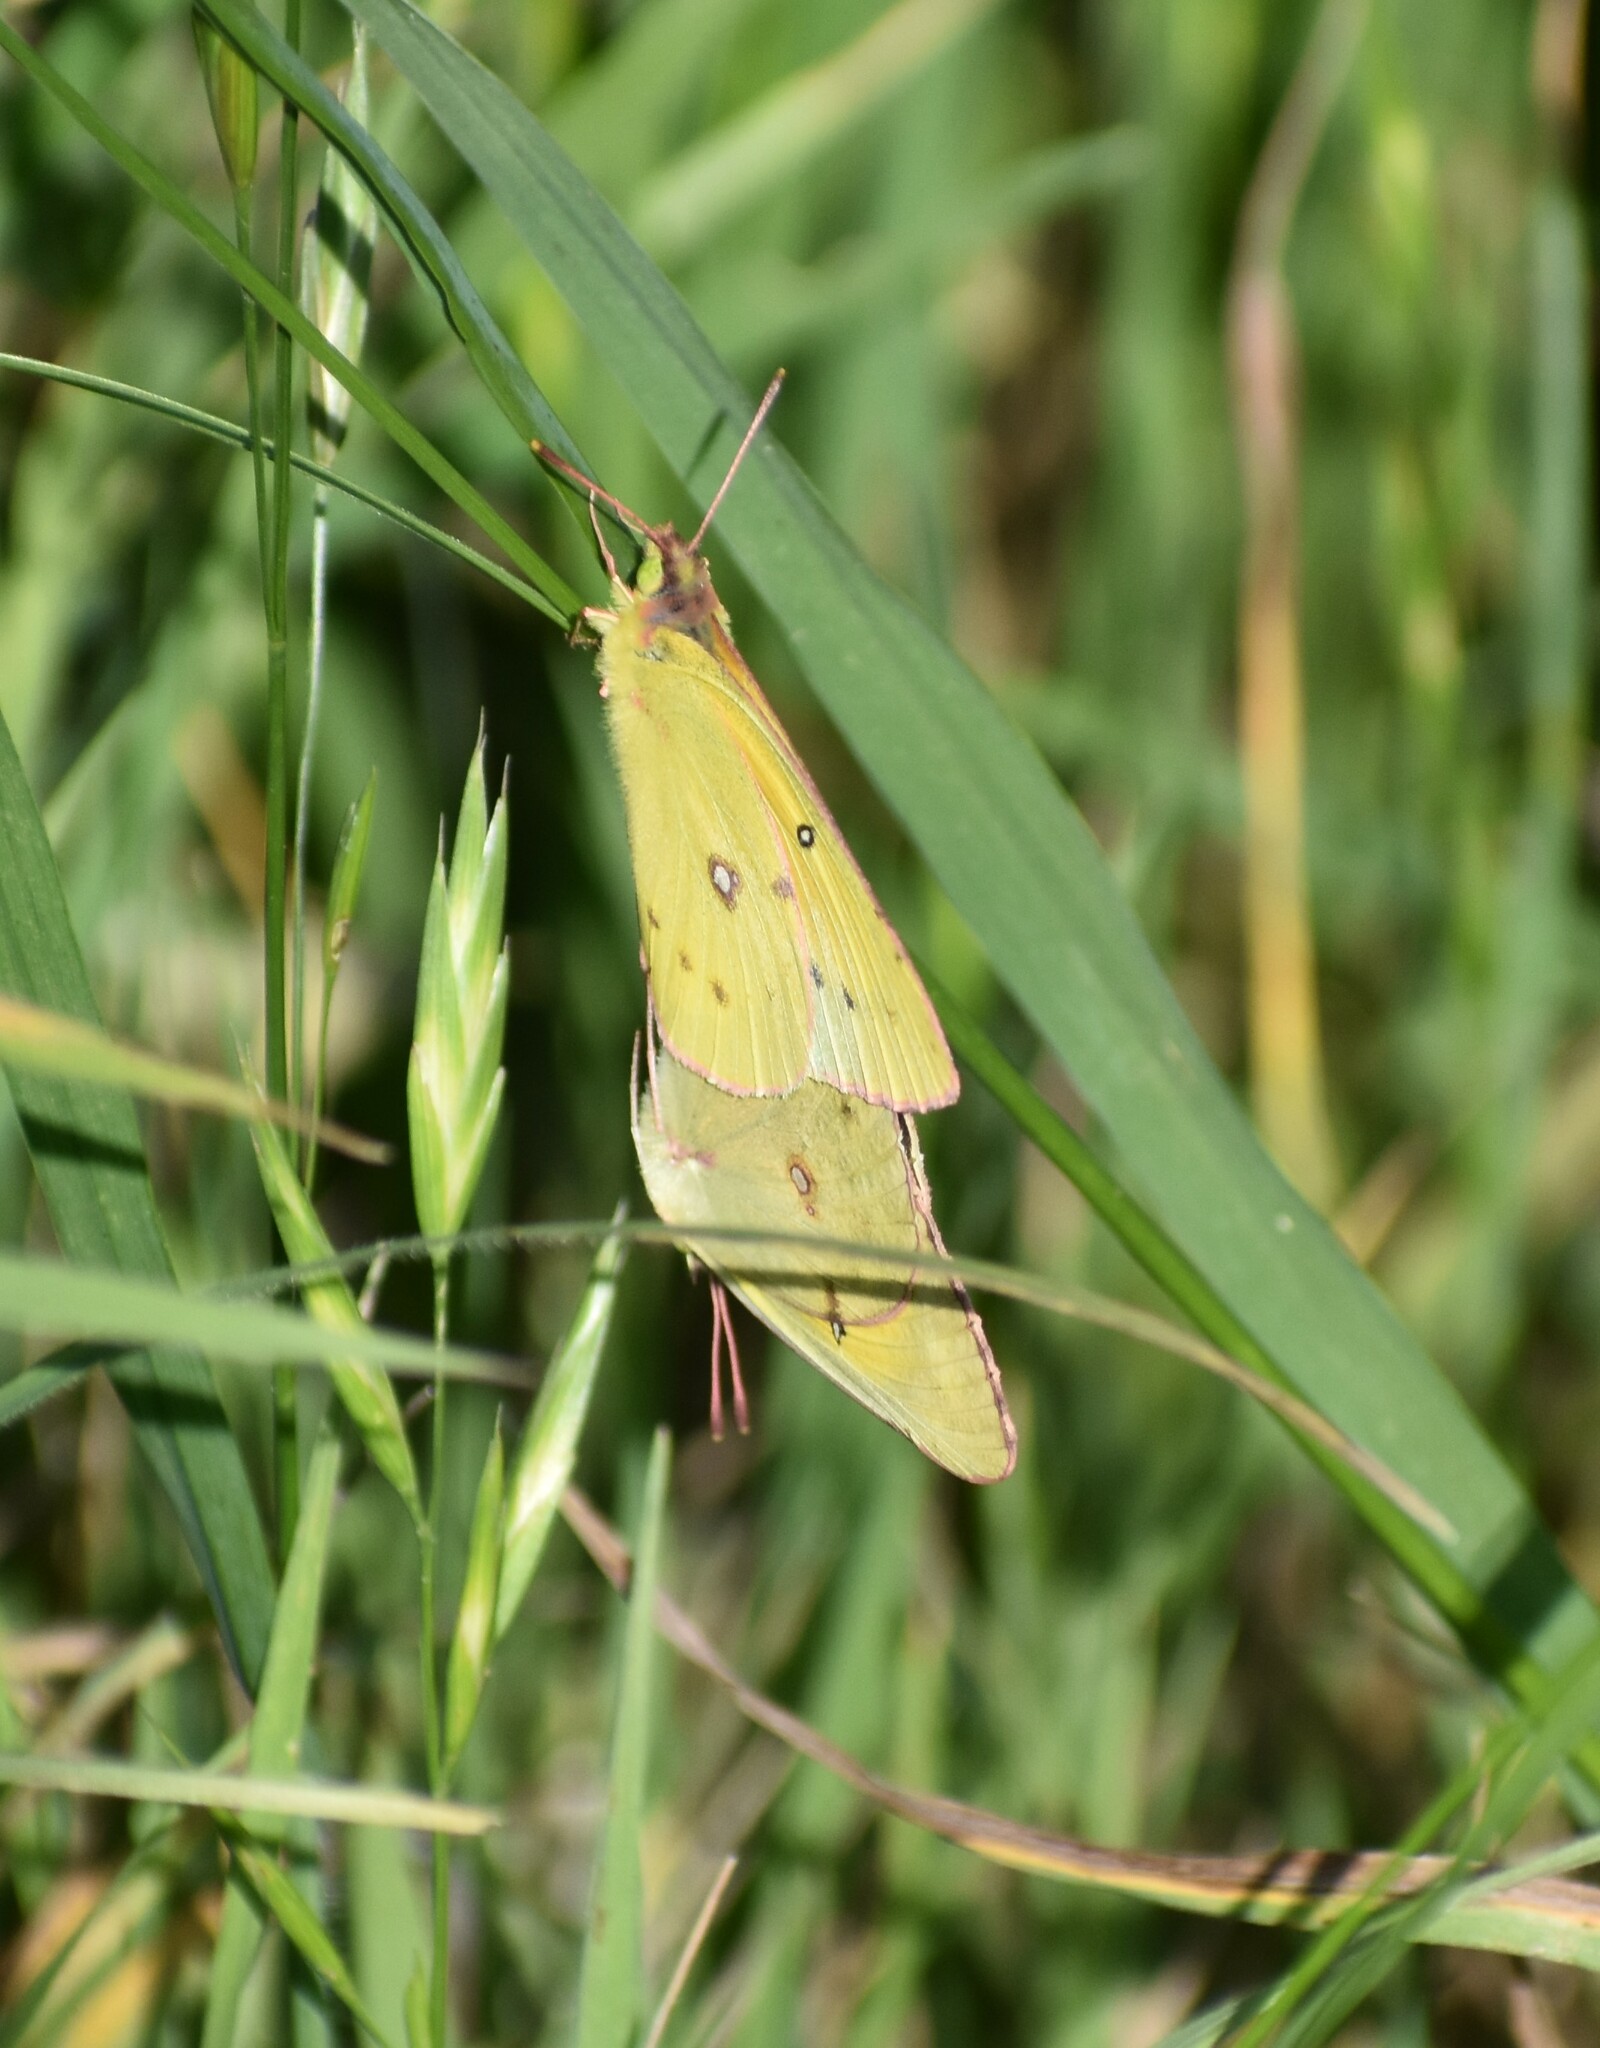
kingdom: Animalia
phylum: Arthropoda
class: Insecta
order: Lepidoptera
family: Pieridae
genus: Colias
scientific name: Colias eurytheme
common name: Alfalfa butterfly
